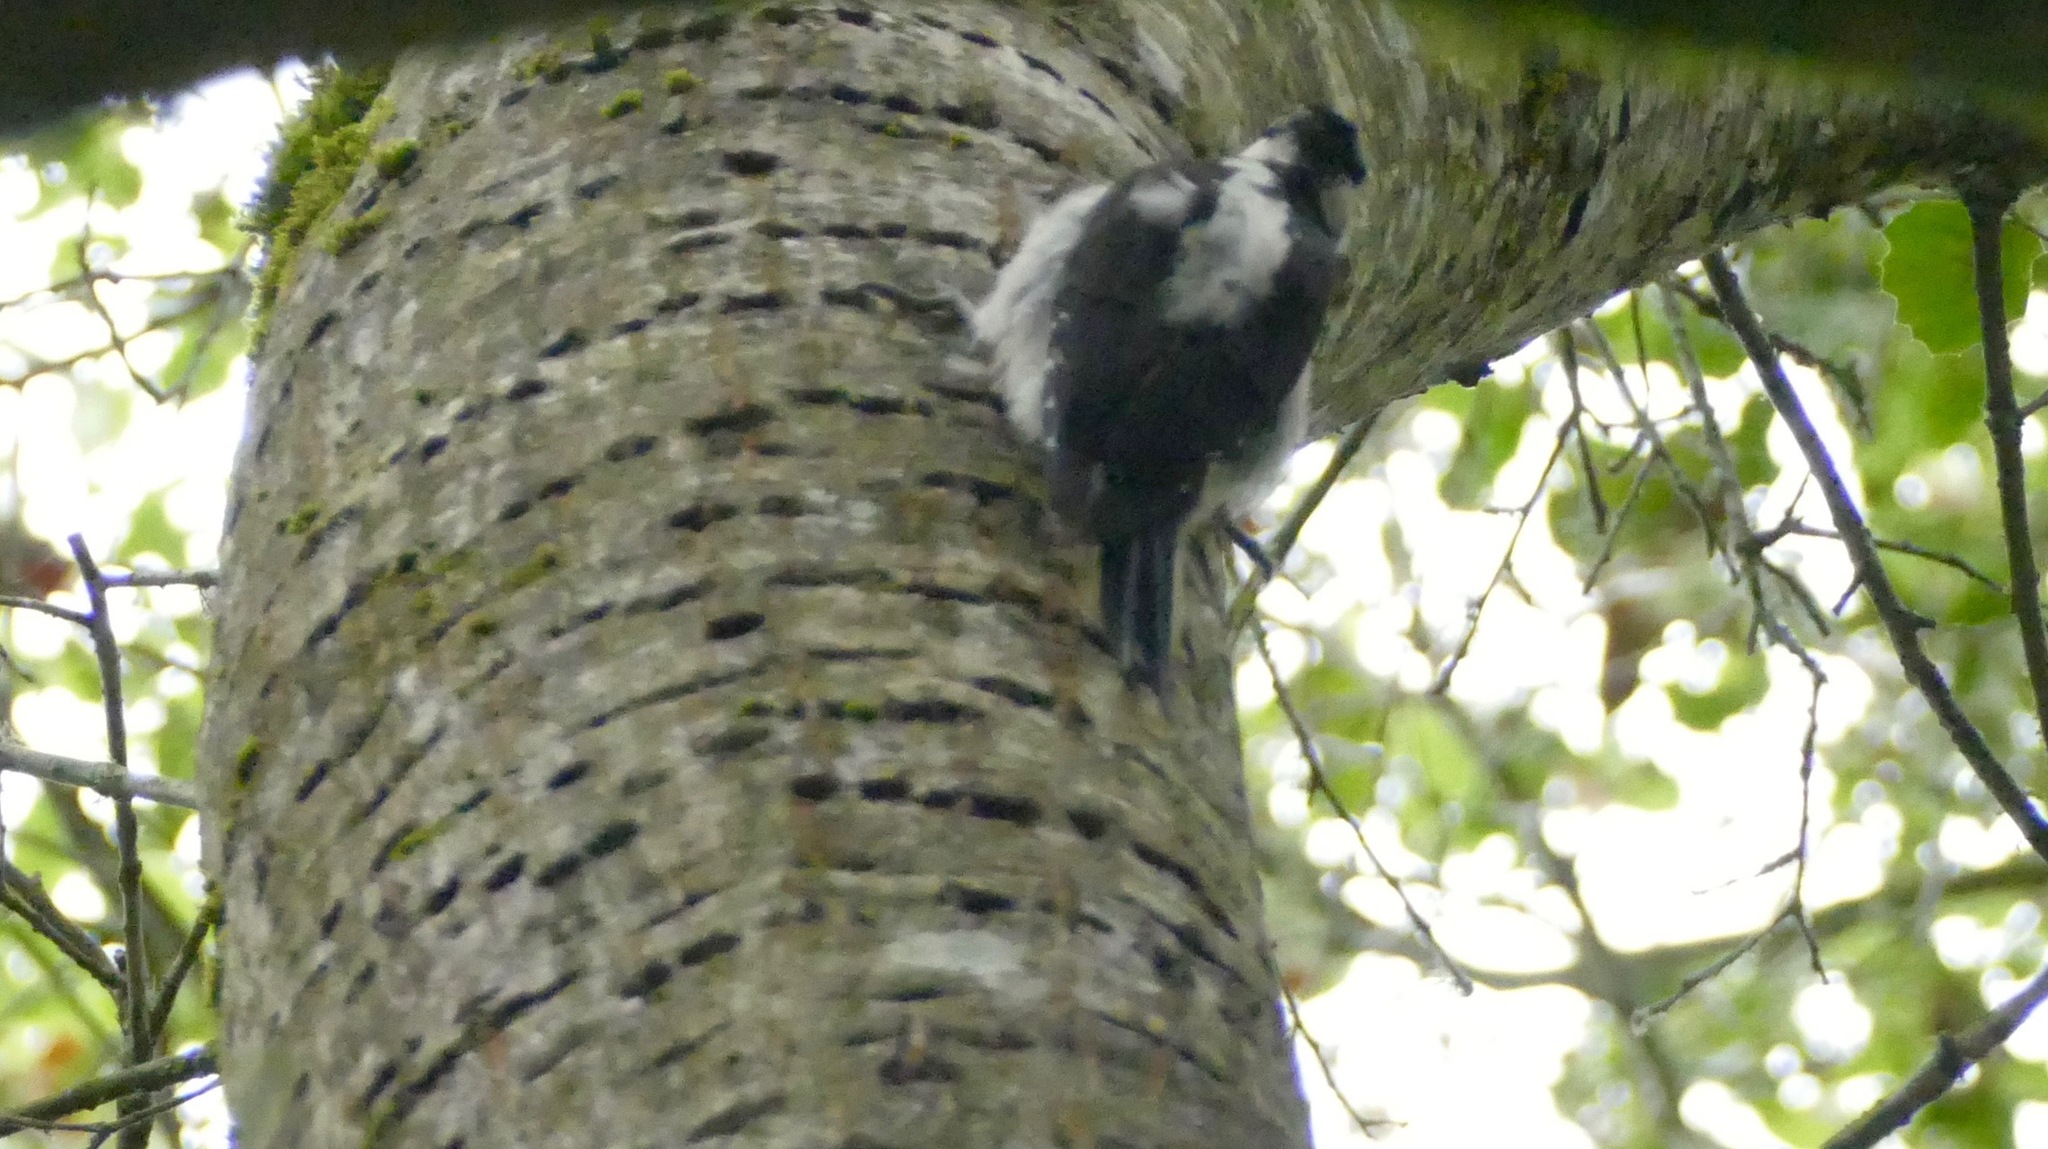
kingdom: Animalia
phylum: Chordata
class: Aves
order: Piciformes
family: Picidae
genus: Leuconotopicus
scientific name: Leuconotopicus villosus
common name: Hairy woodpecker
